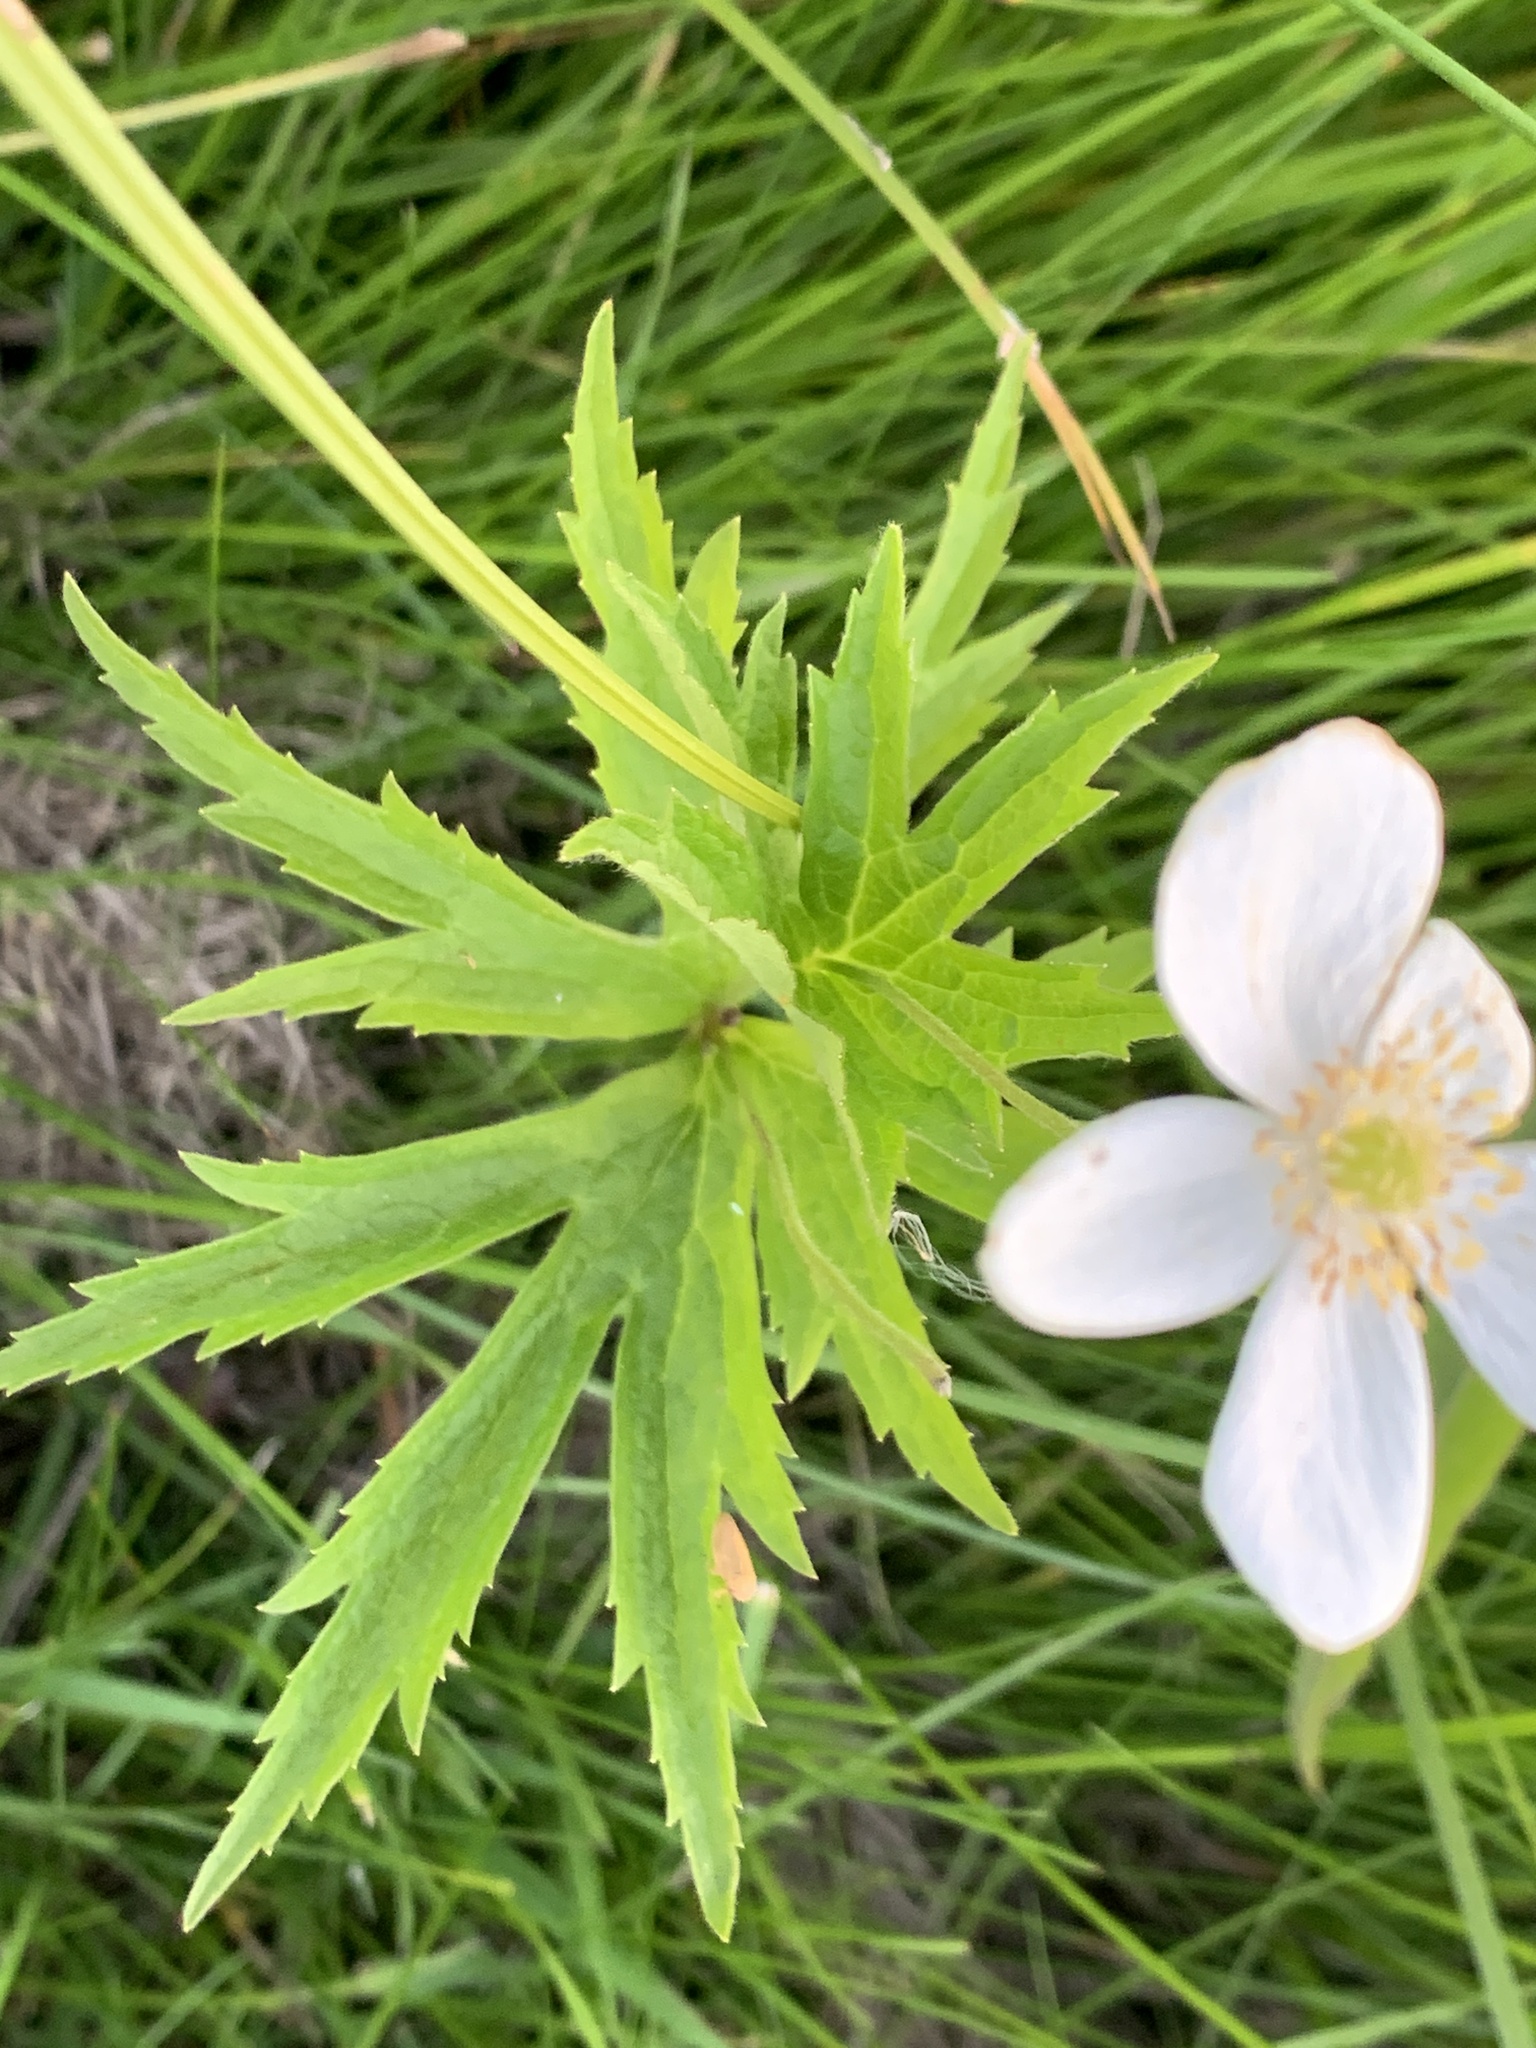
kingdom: Plantae
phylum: Tracheophyta
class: Magnoliopsida
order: Ranunculales
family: Ranunculaceae
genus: Anemonastrum
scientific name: Anemonastrum canadense
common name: Canada anemone
